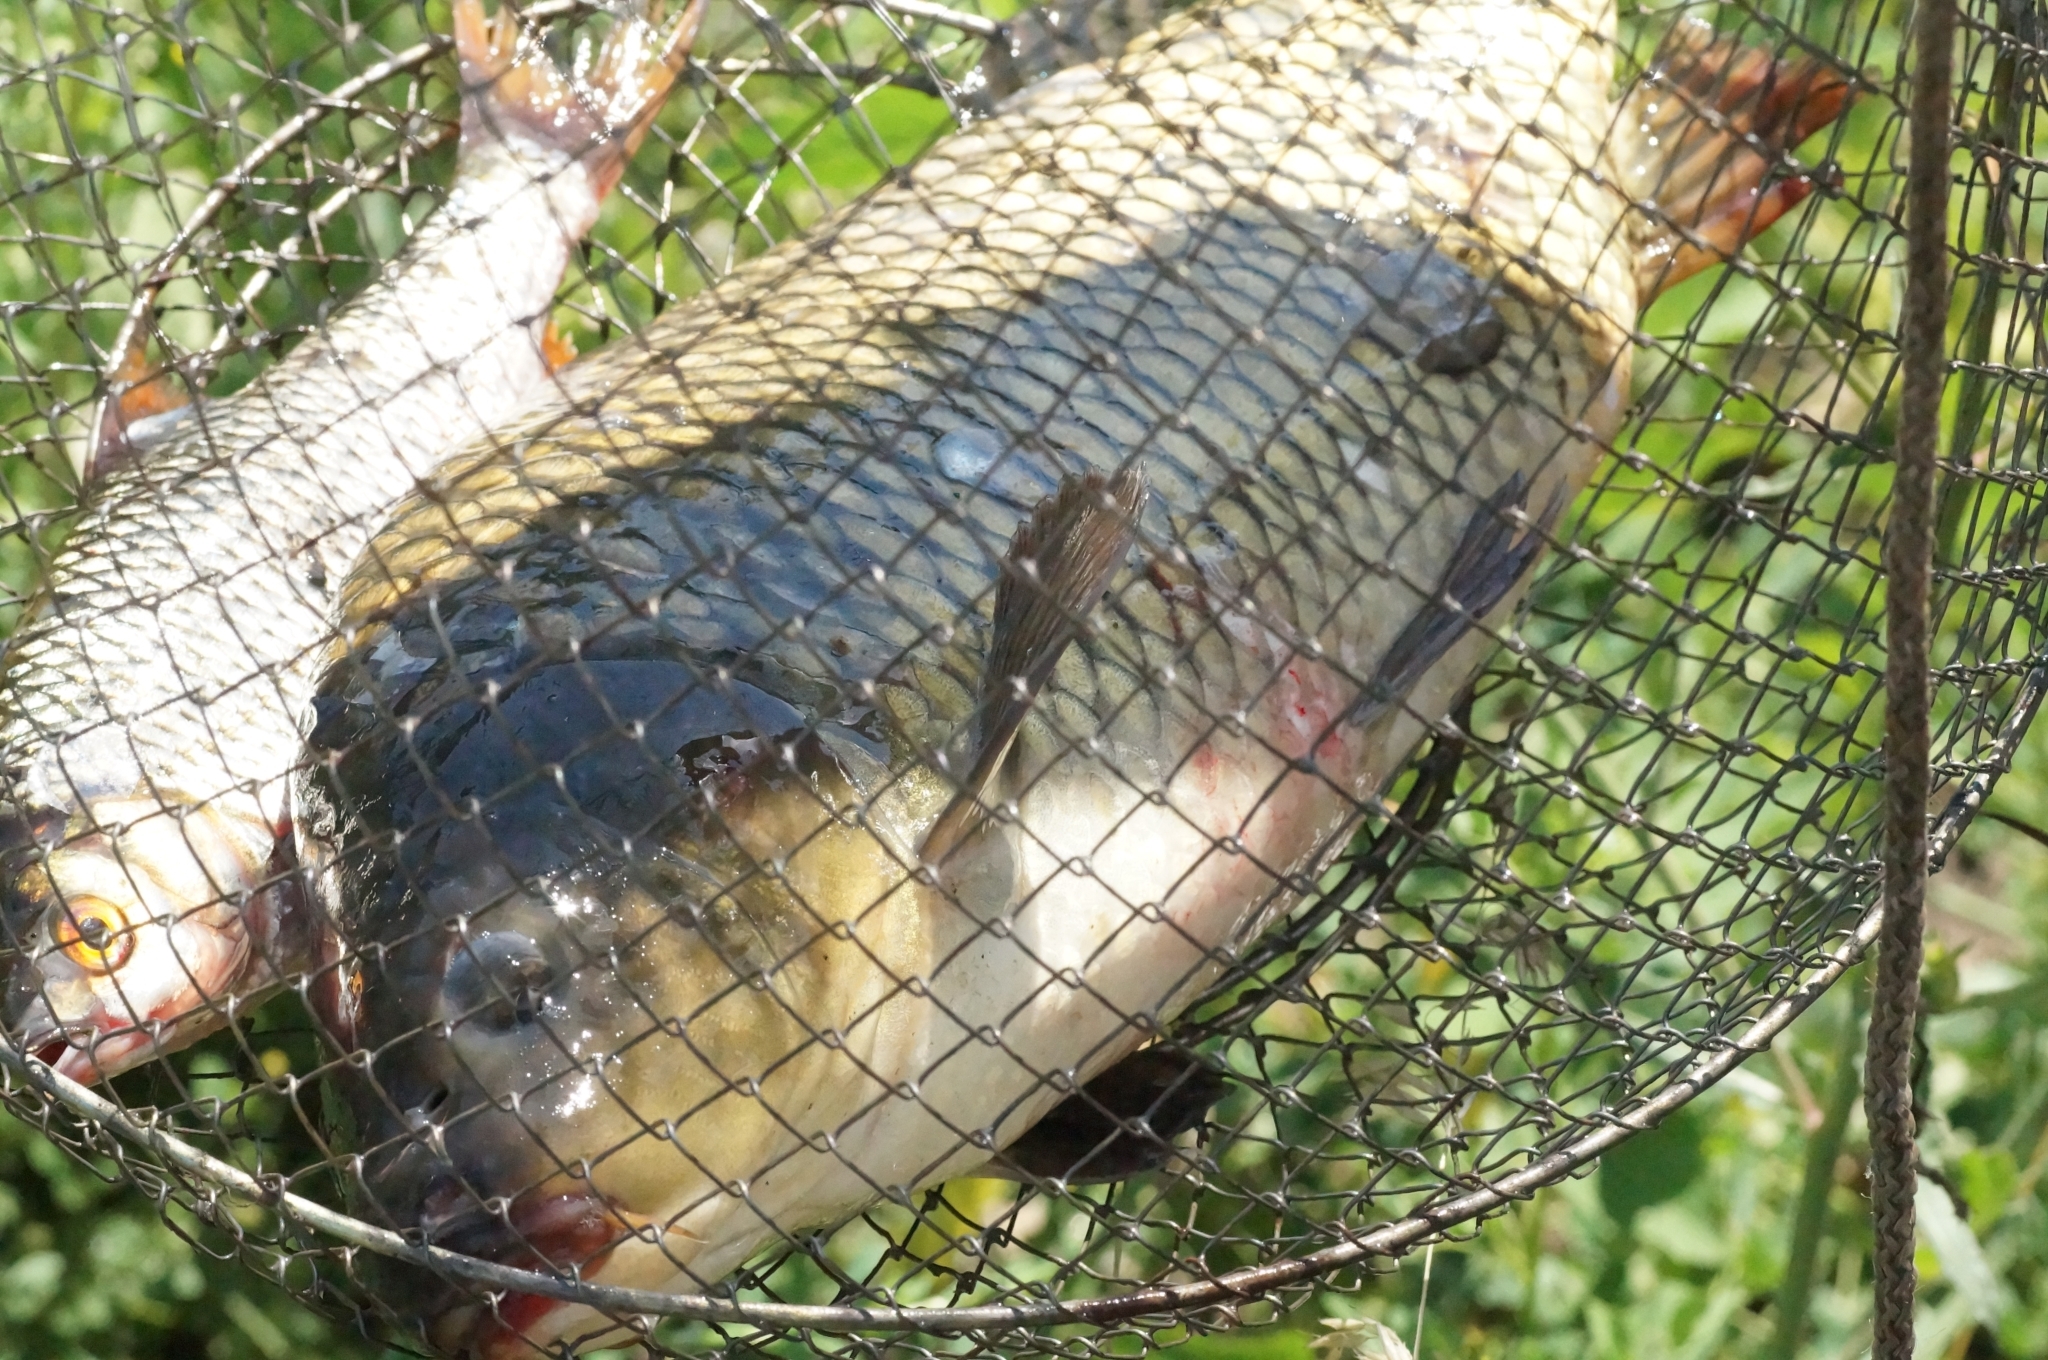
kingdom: Animalia
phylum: Chordata
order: Cypriniformes
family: Cyprinidae
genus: Cyprinus
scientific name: Cyprinus carpio
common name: Common carp
